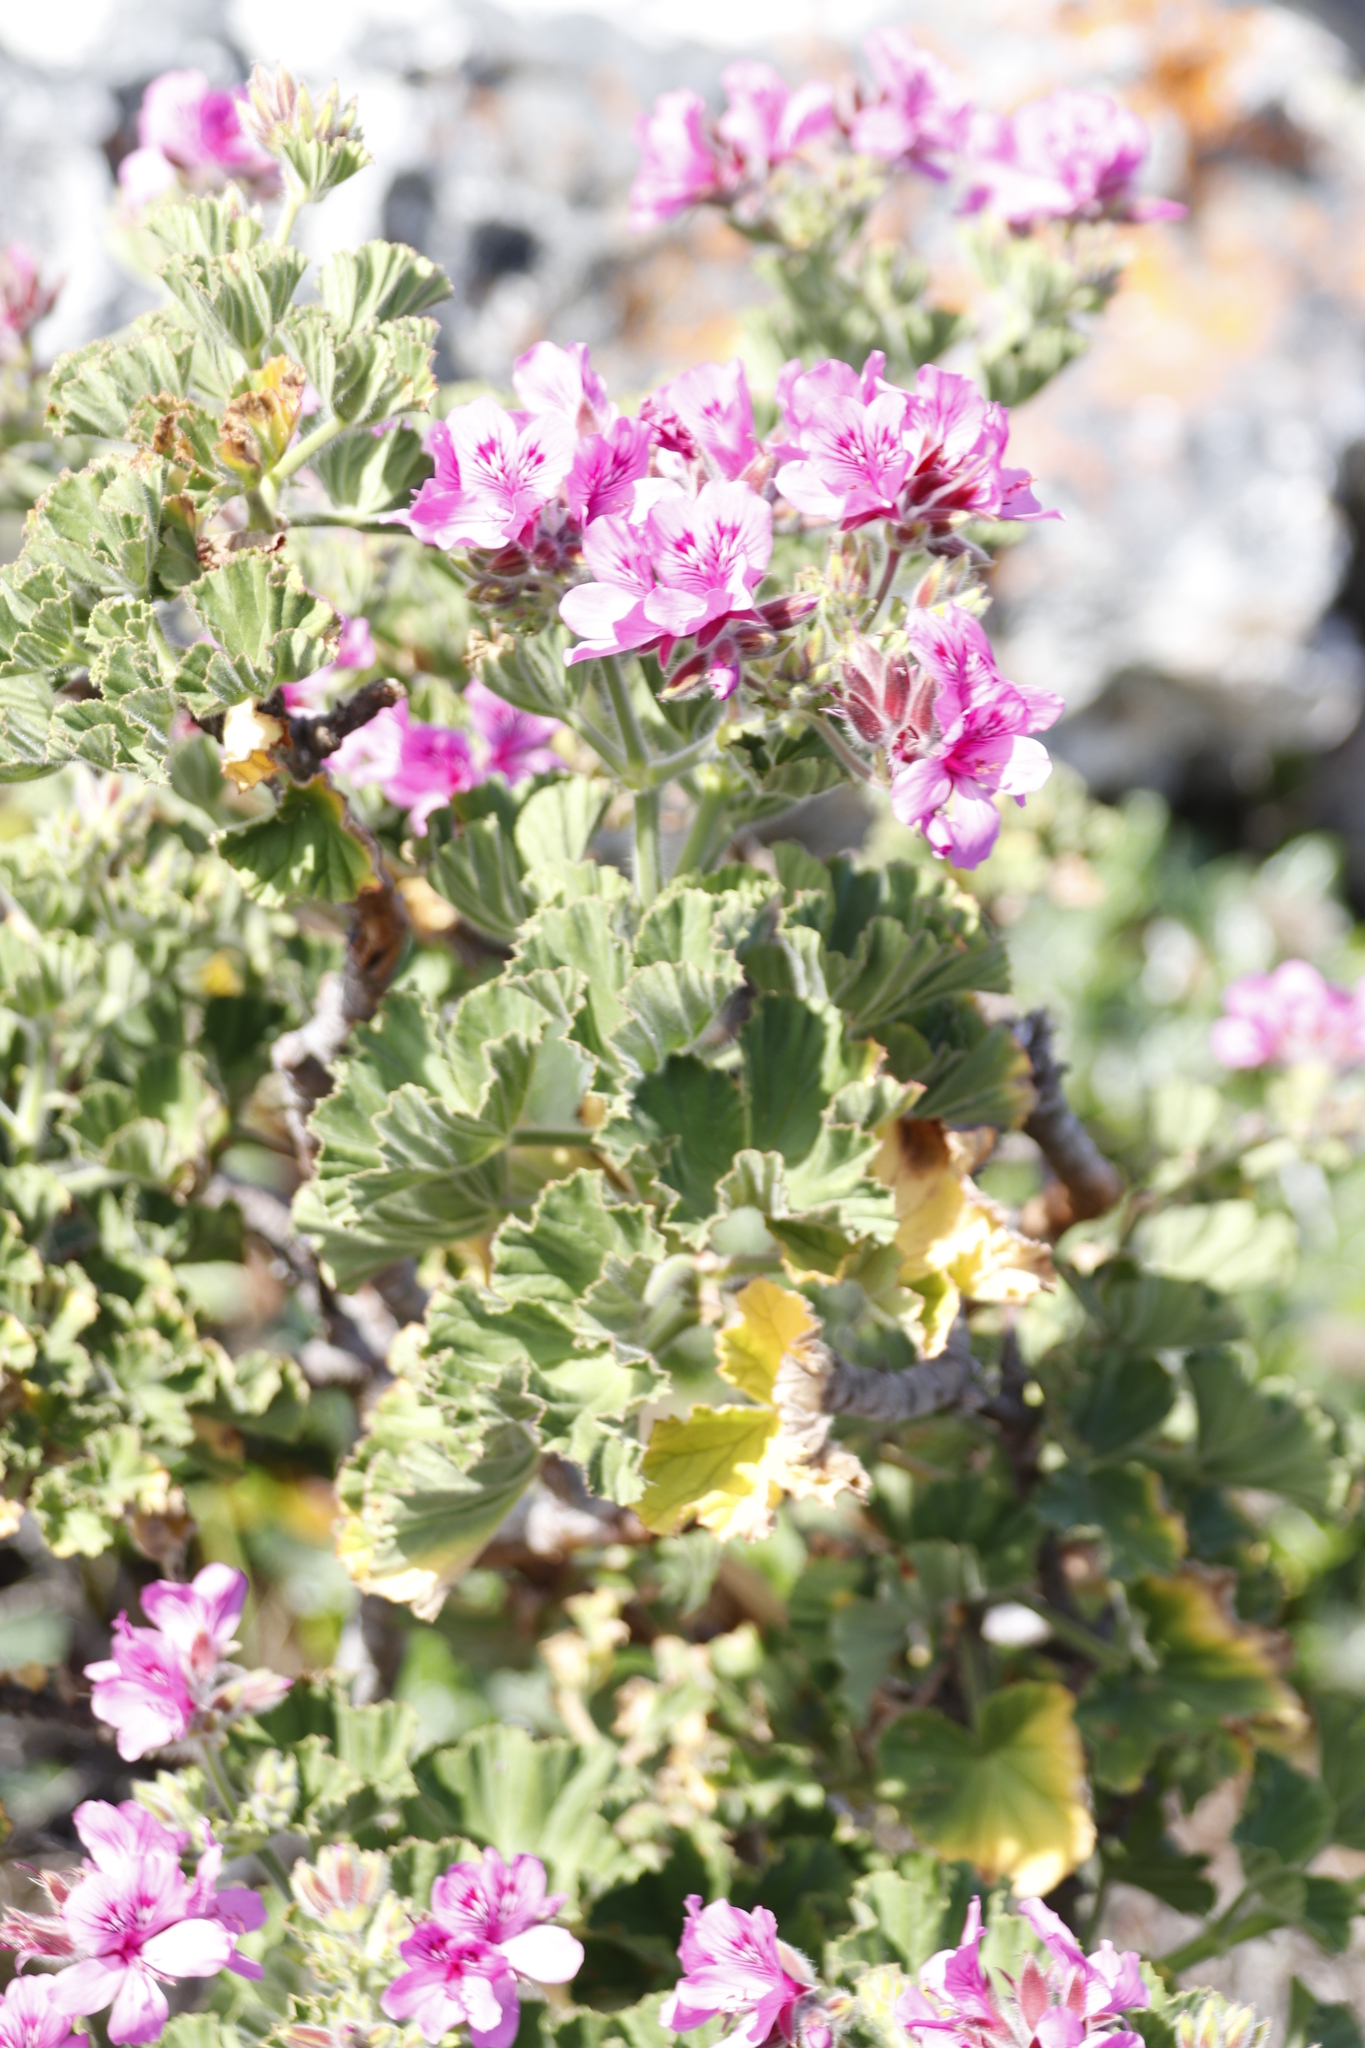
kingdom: Plantae
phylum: Tracheophyta
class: Magnoliopsida
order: Geraniales
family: Geraniaceae
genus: Pelargonium
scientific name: Pelargonium cucullatum
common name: Tree pelargonium
